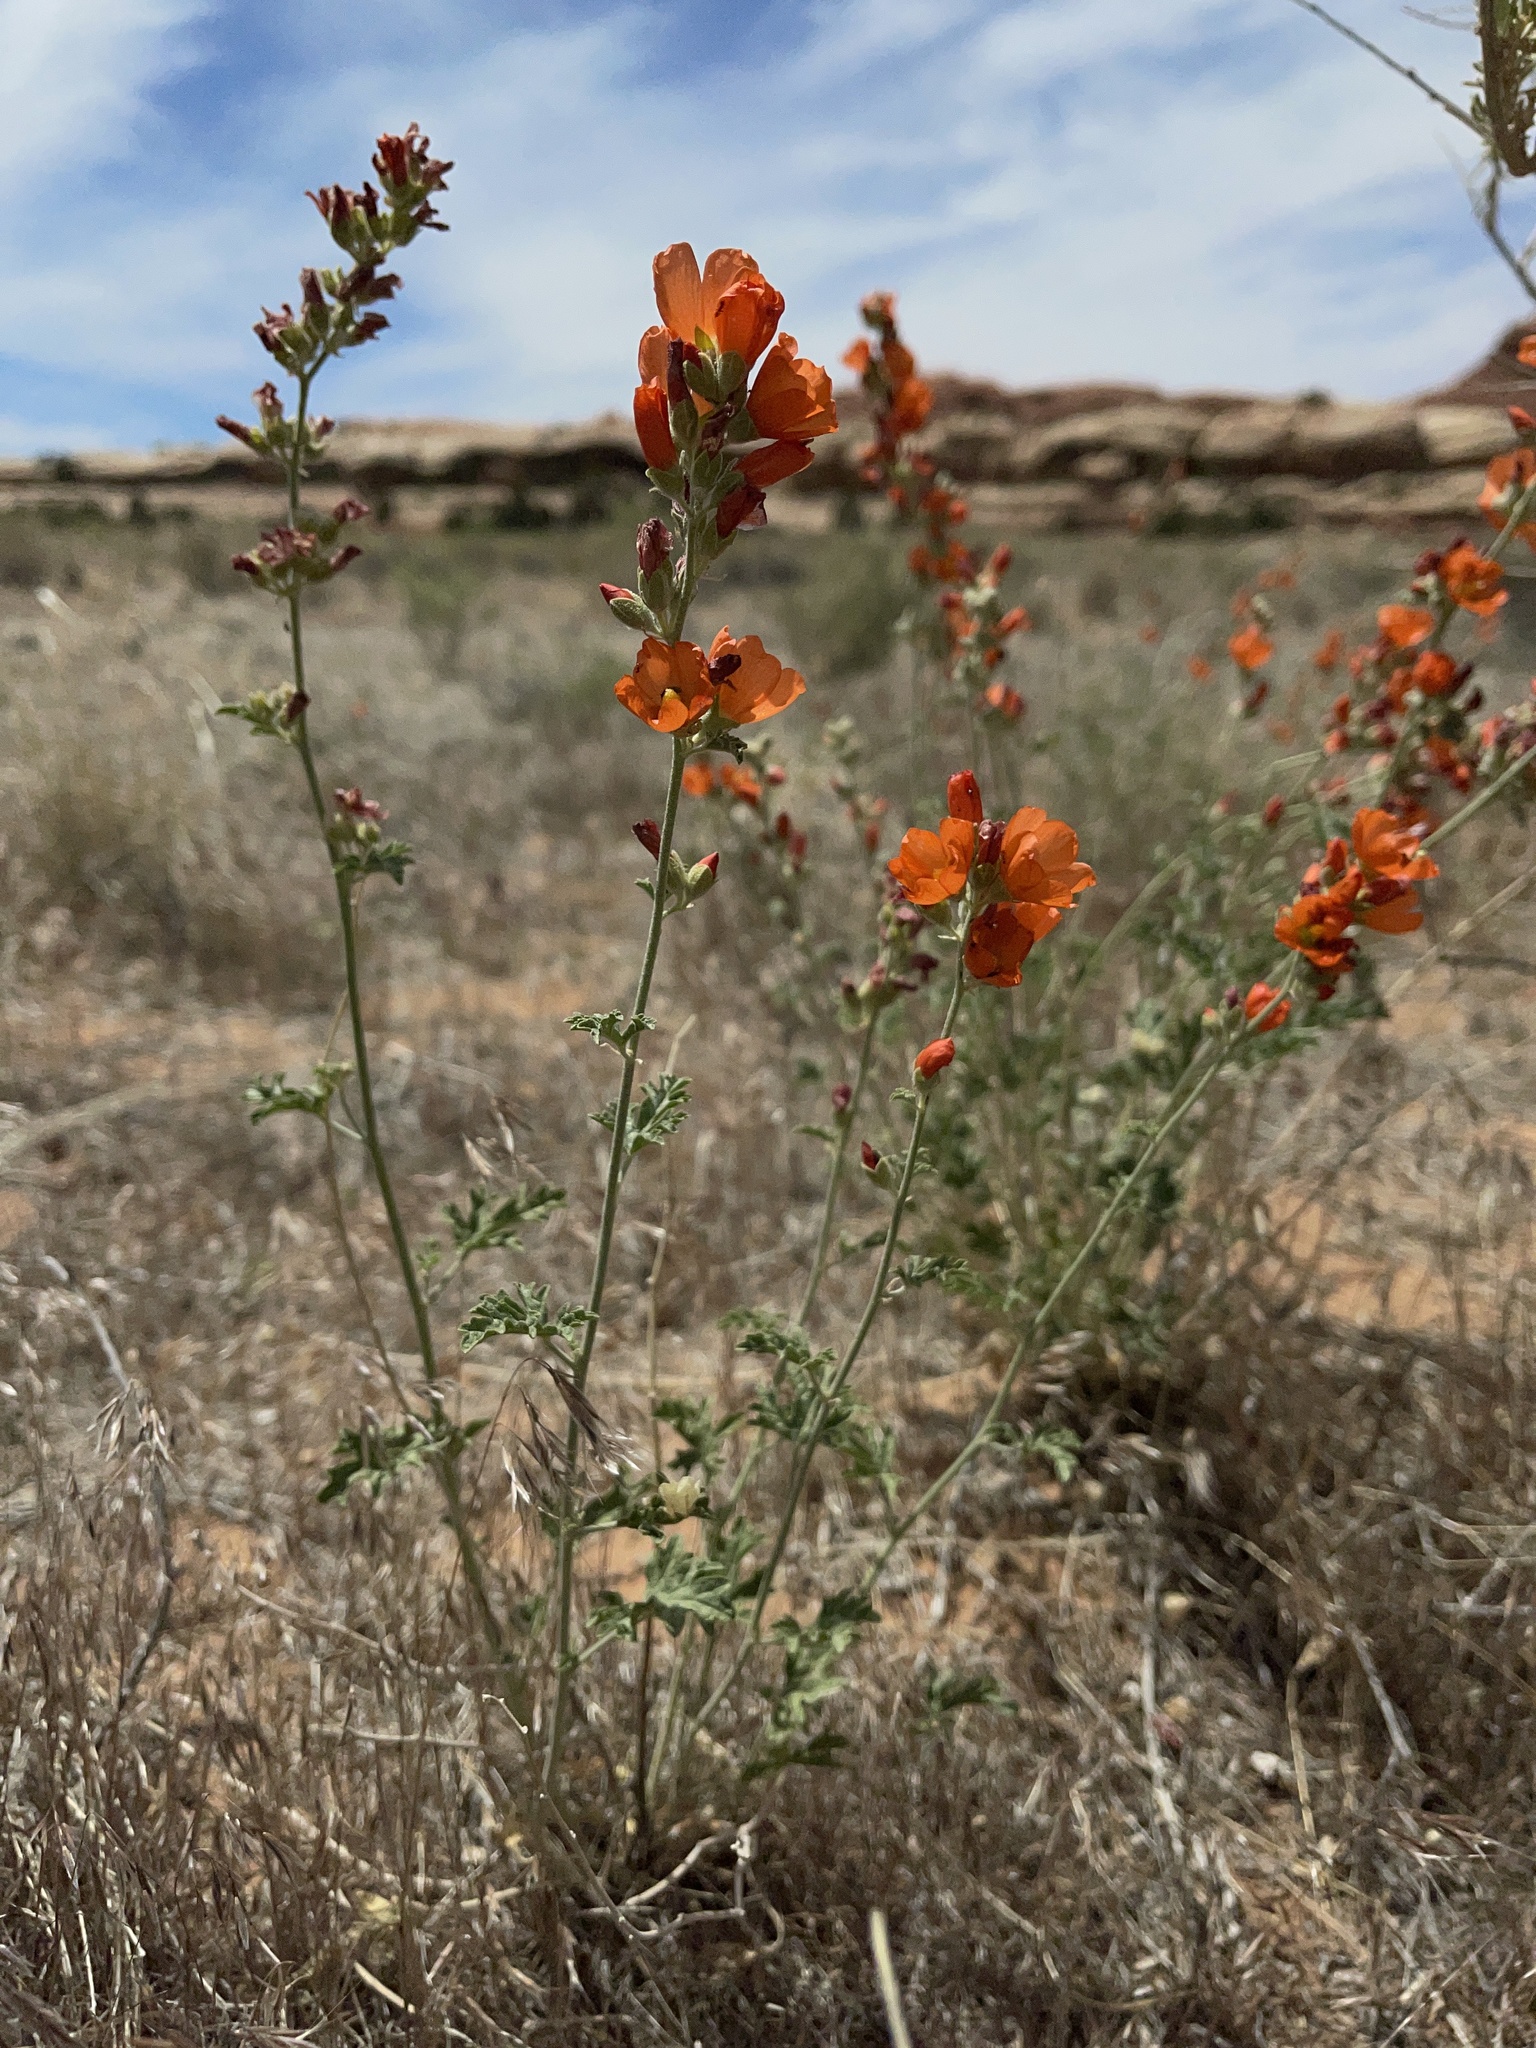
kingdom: Plantae
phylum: Tracheophyta
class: Magnoliopsida
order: Malvales
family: Malvaceae
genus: Sphaeralcea
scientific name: Sphaeralcea grossulariifolia
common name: Current-leaf globe-mallow
